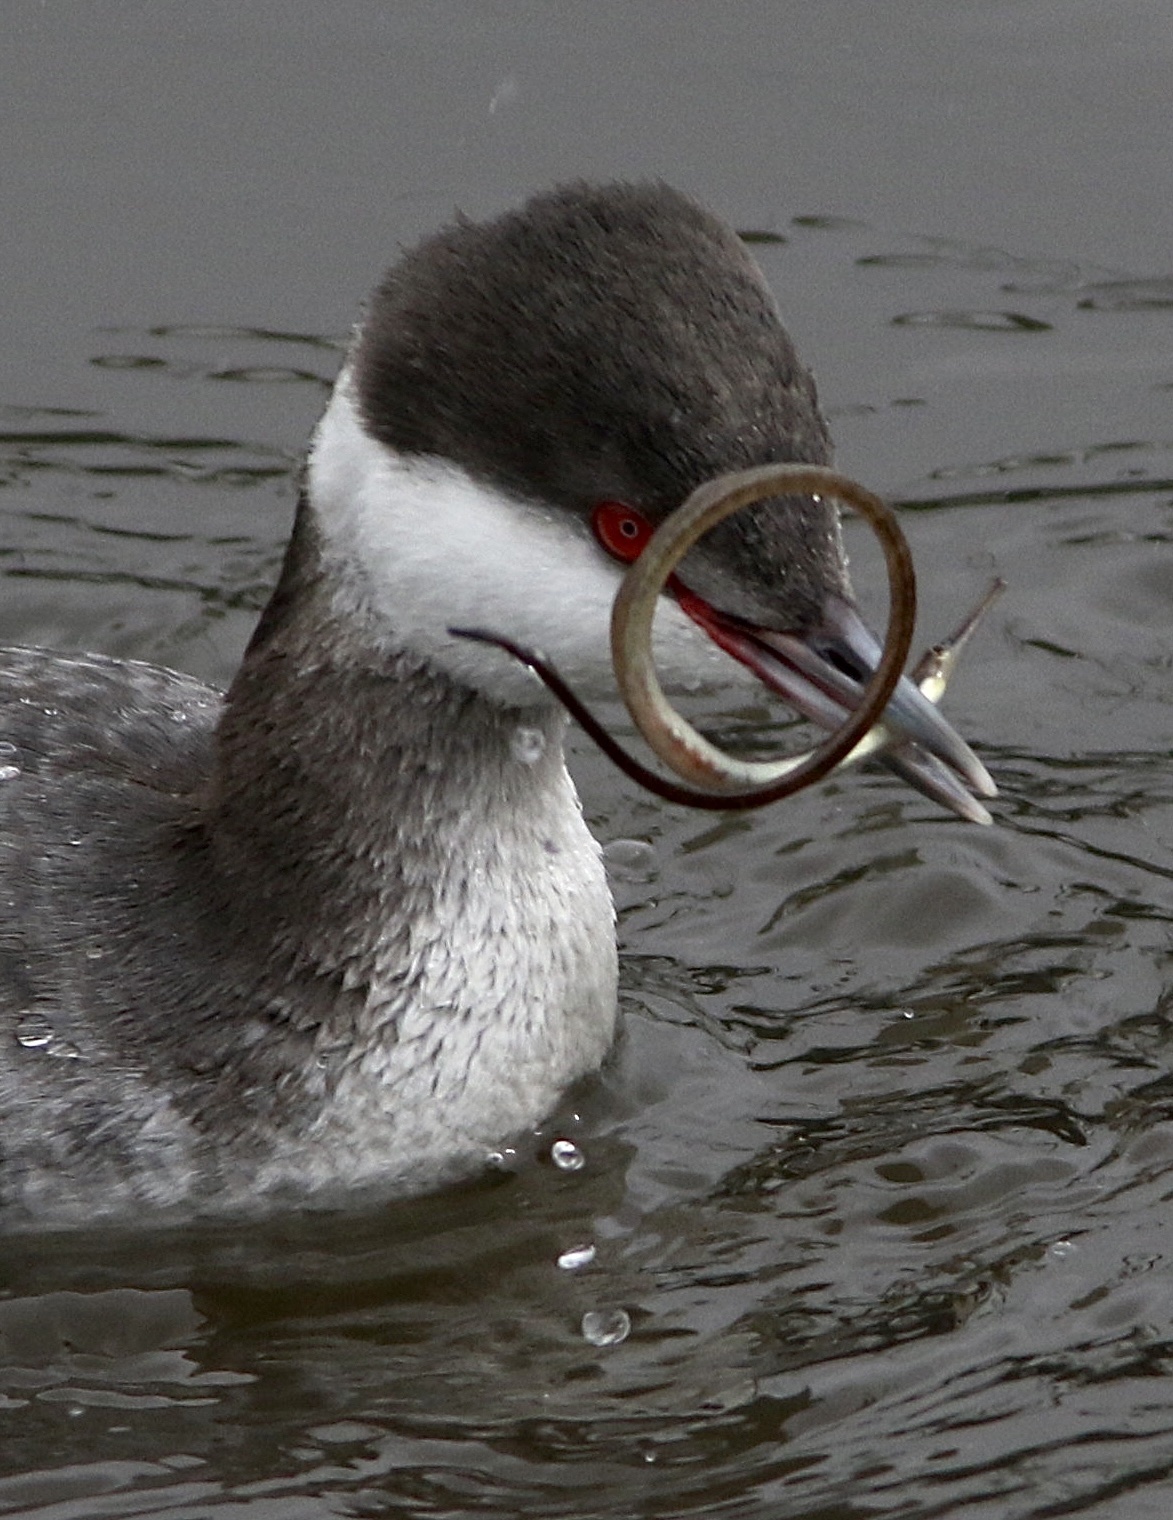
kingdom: Animalia
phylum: Chordata
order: Syngnathiformes
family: Syngnathidae
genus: Syngnathus
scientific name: Syngnathus californiensis
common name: Great pipefish
